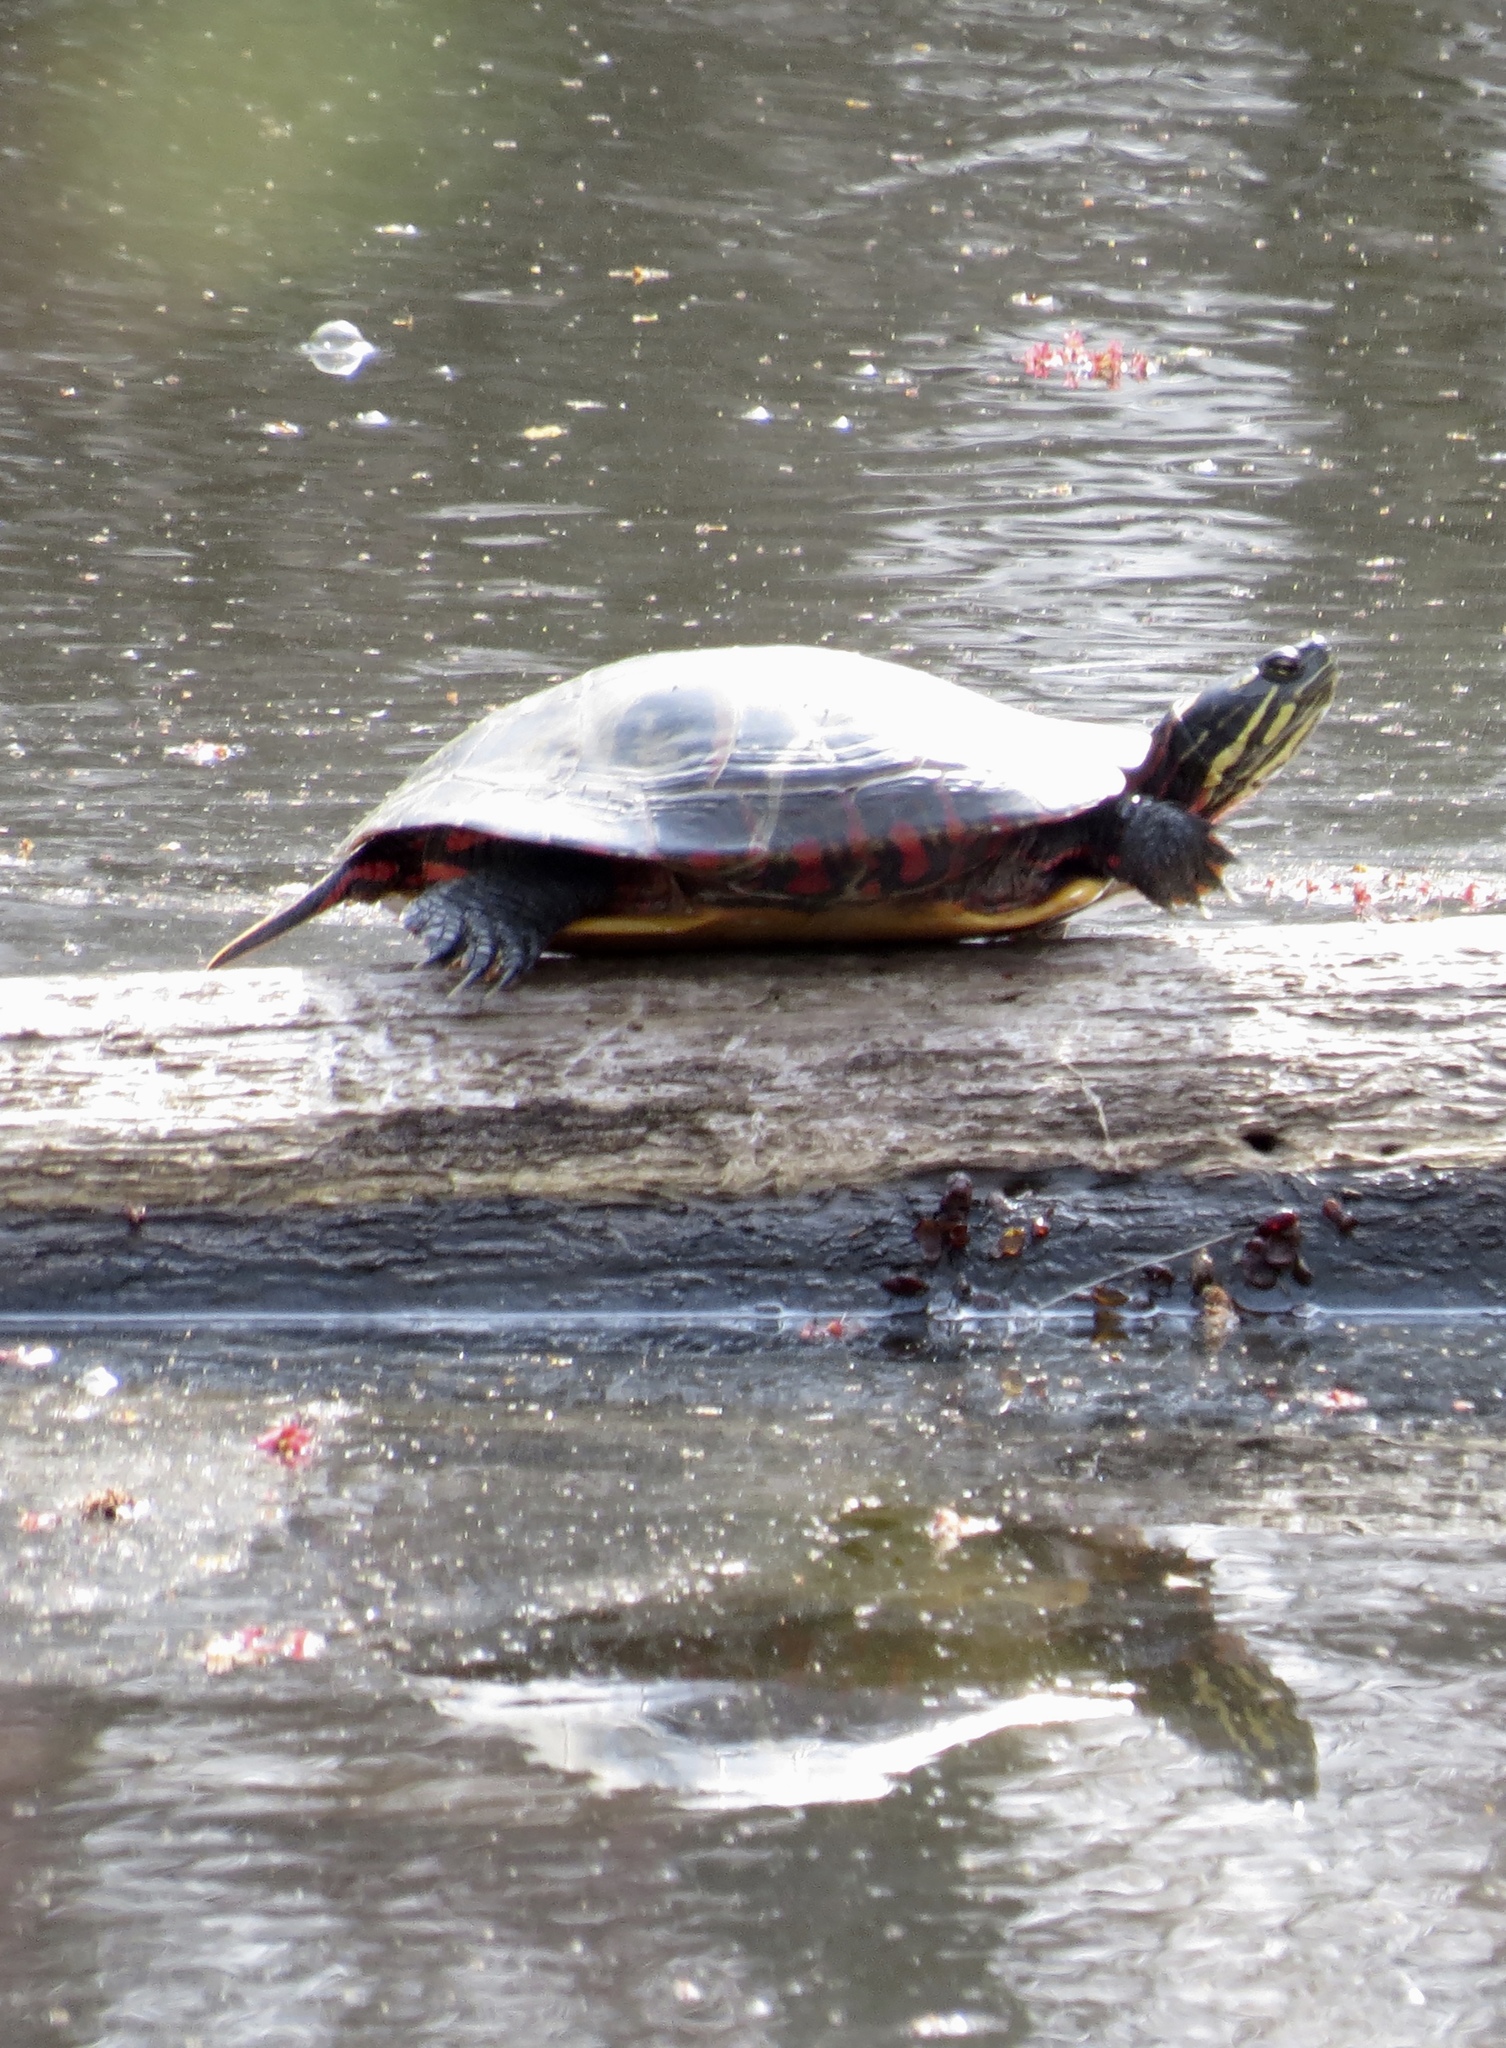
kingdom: Animalia
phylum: Chordata
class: Testudines
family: Emydidae
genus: Chrysemys
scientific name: Chrysemys picta
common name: Painted turtle
